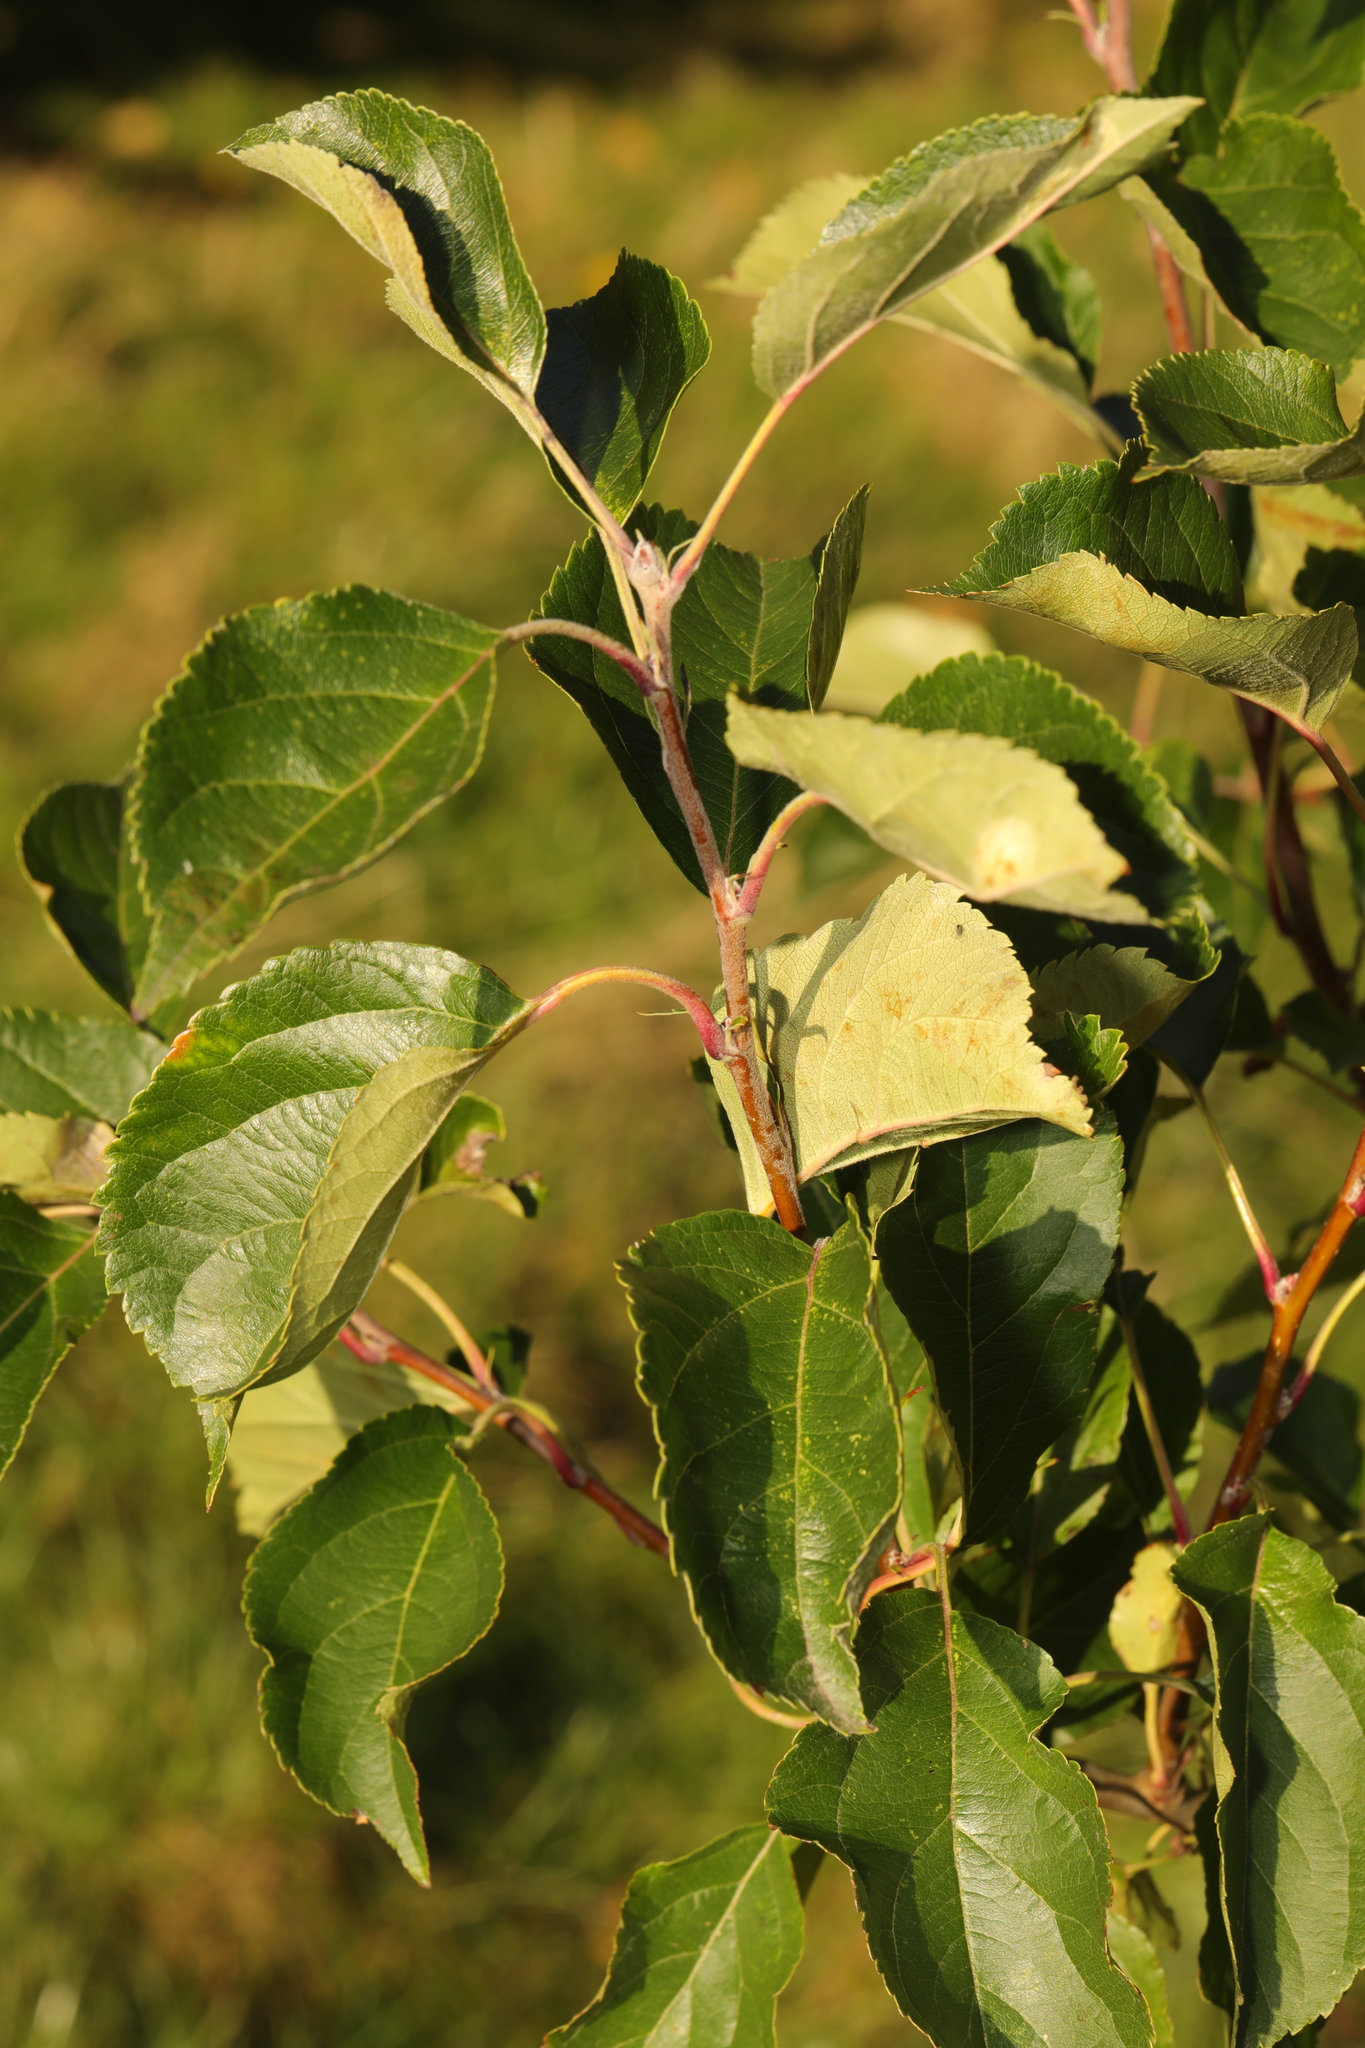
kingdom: Plantae
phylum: Tracheophyta
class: Magnoliopsida
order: Rosales
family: Rosaceae
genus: Malus
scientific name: Malus domestica
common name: Apple
